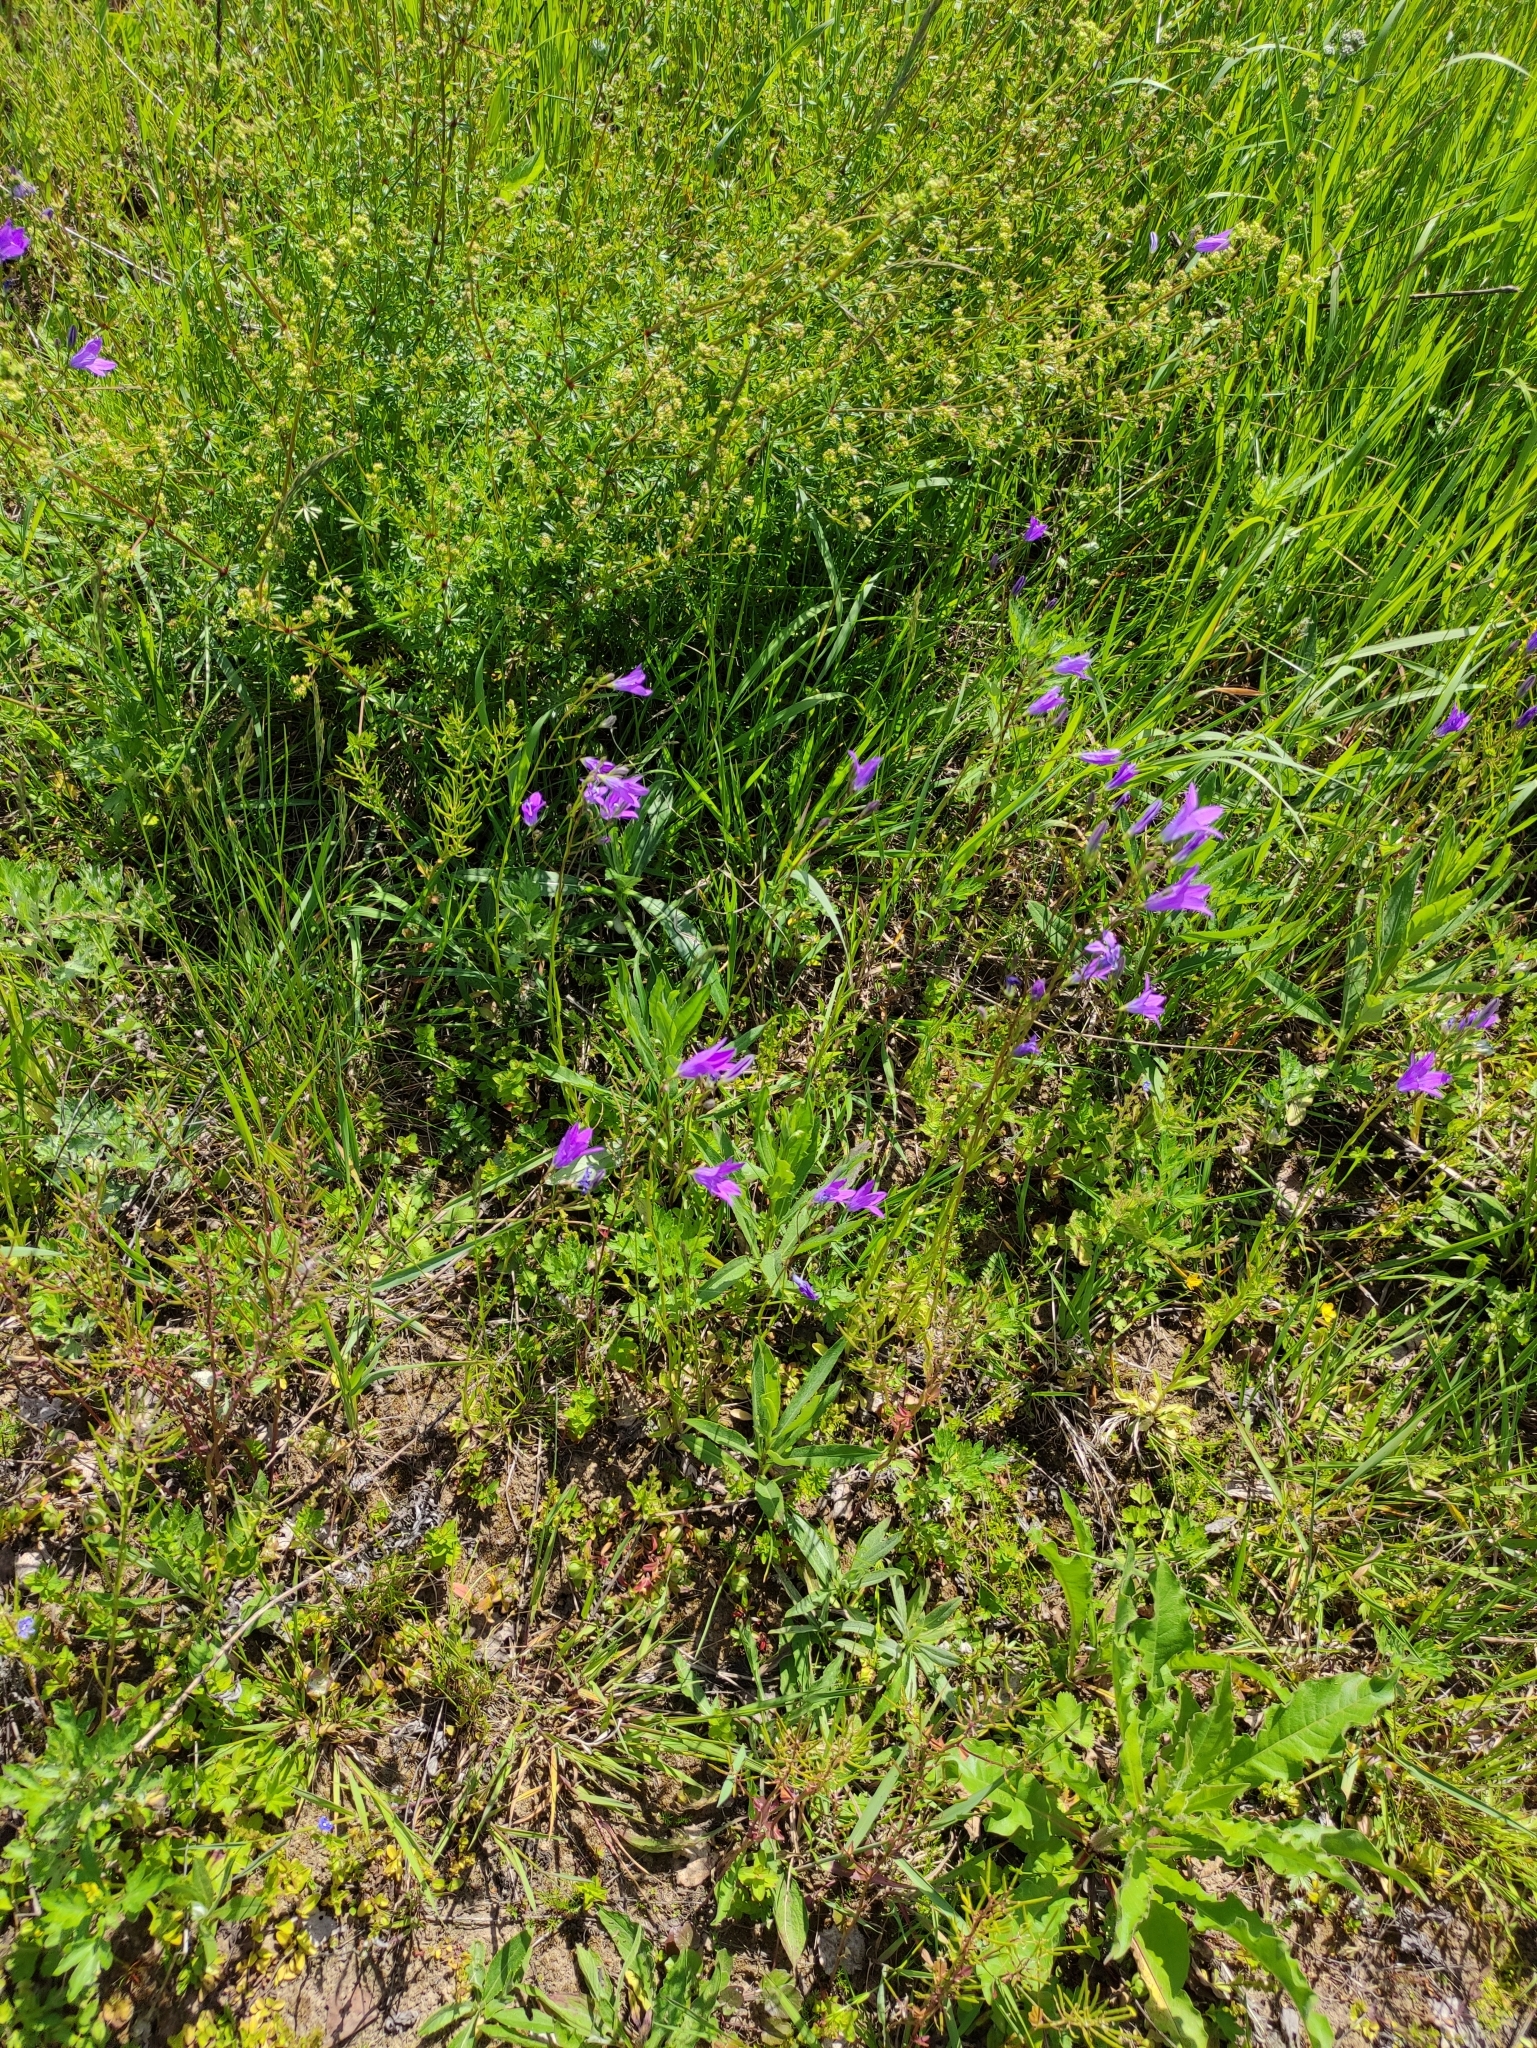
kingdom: Plantae
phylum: Tracheophyta
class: Magnoliopsida
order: Asterales
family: Campanulaceae
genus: Campanula
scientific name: Campanula patula
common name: Spreading bellflower
